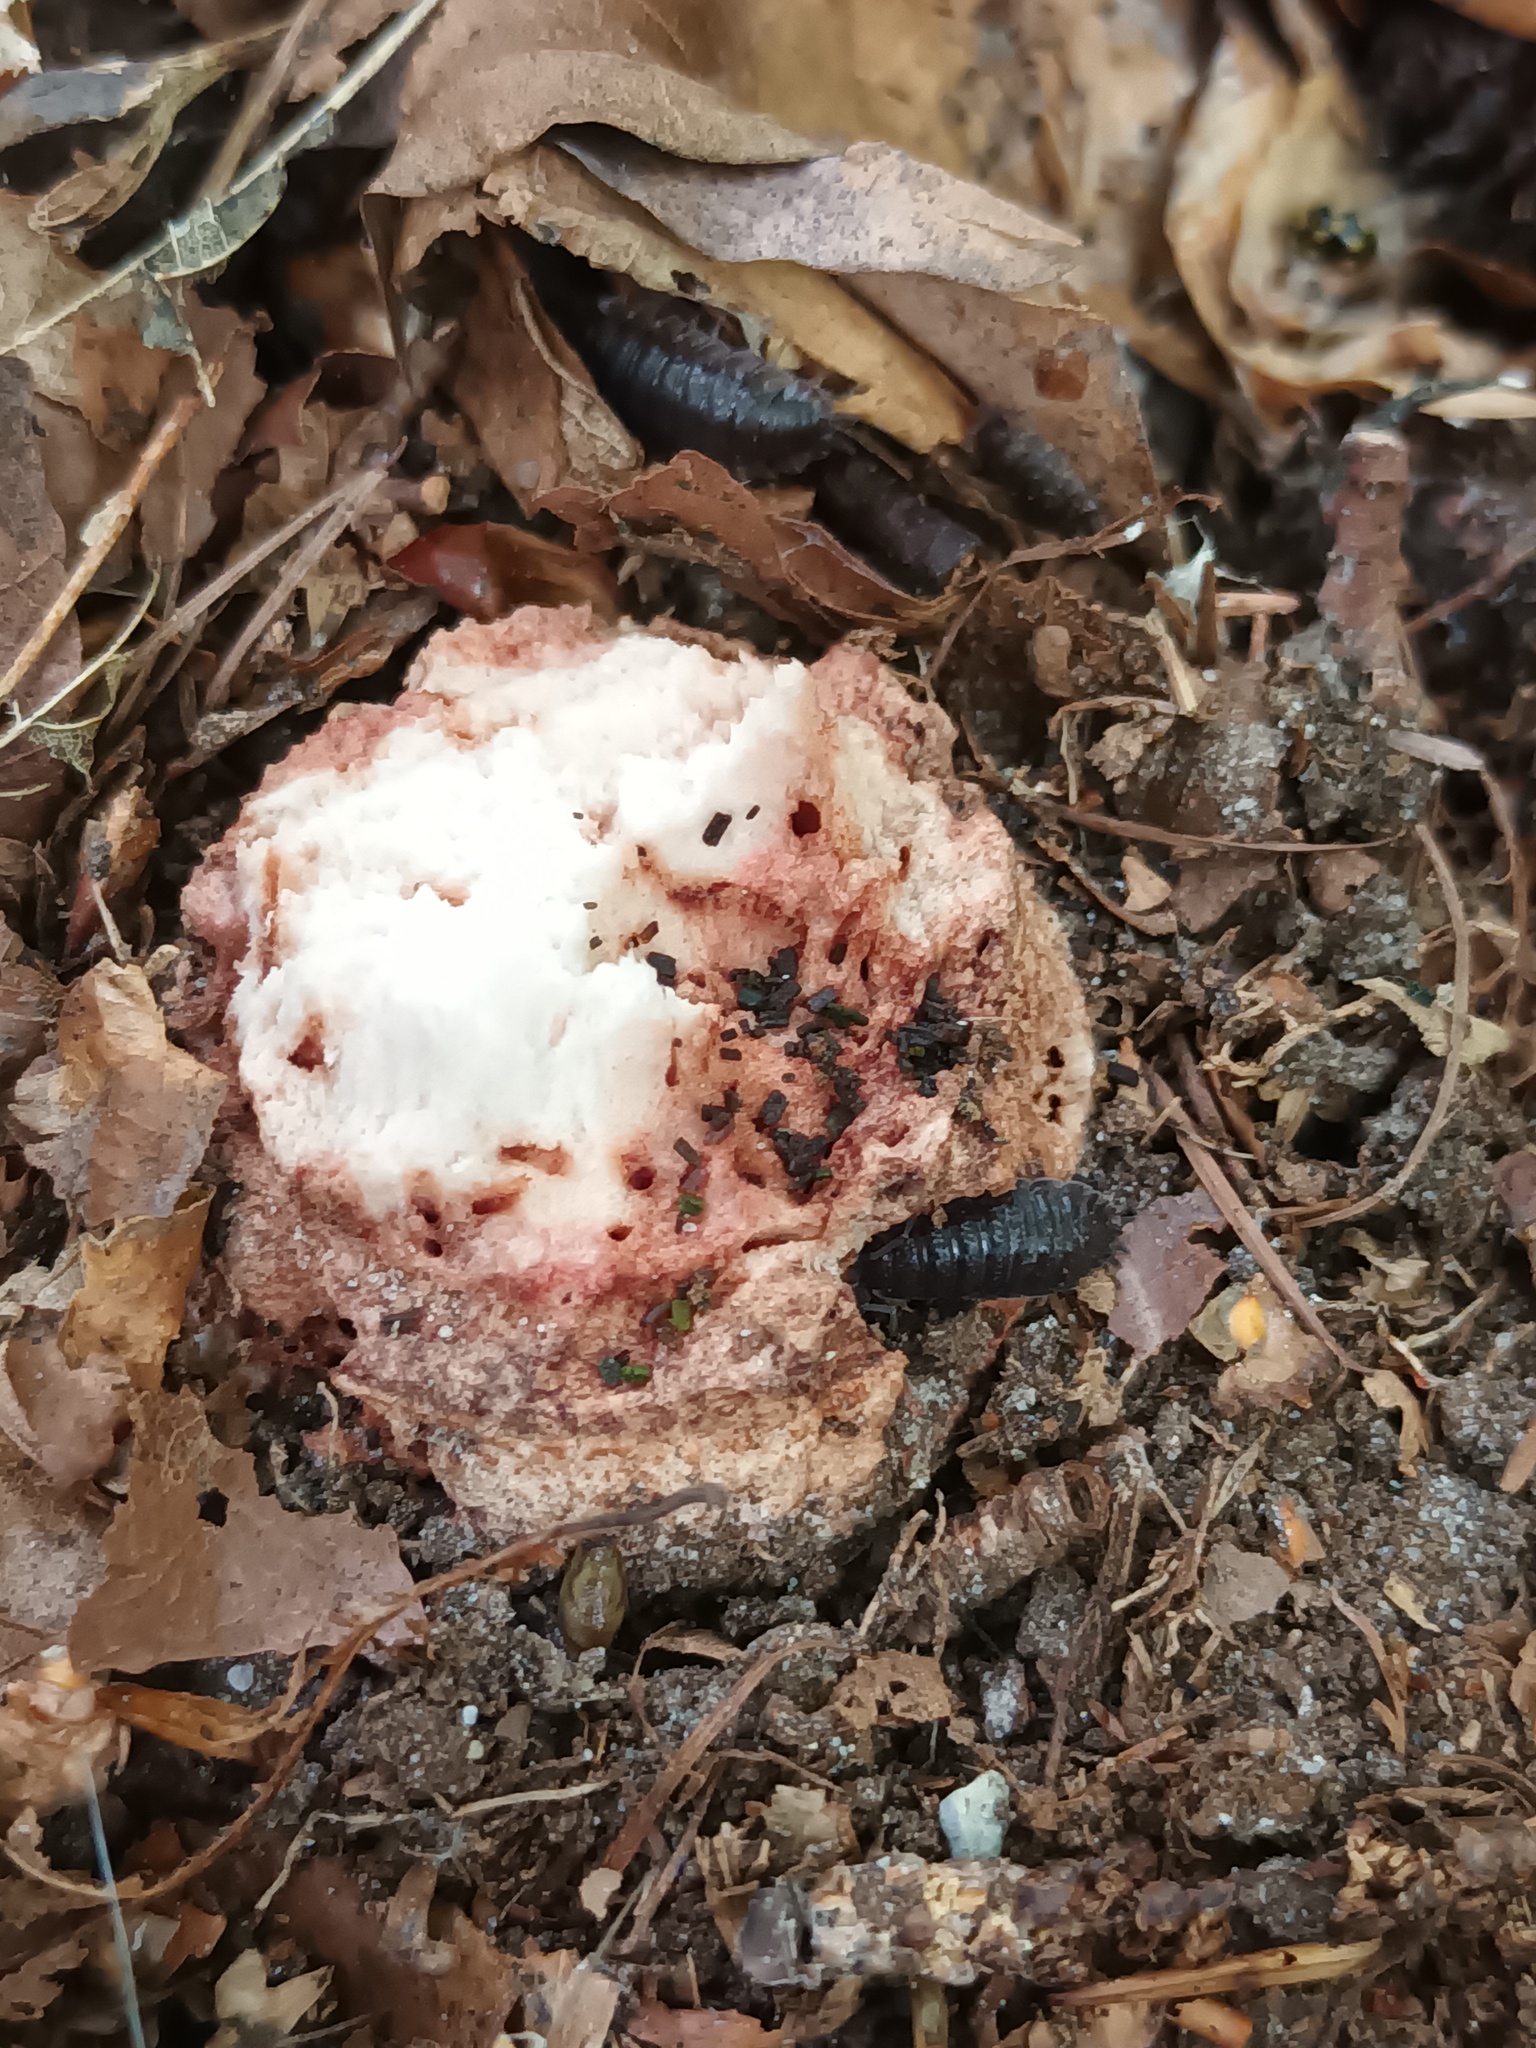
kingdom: Fungi
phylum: Basidiomycota
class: Agaricomycetes
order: Agaricales
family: Amanitaceae
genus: Amanita
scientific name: Amanita rubescens
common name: Blusher
